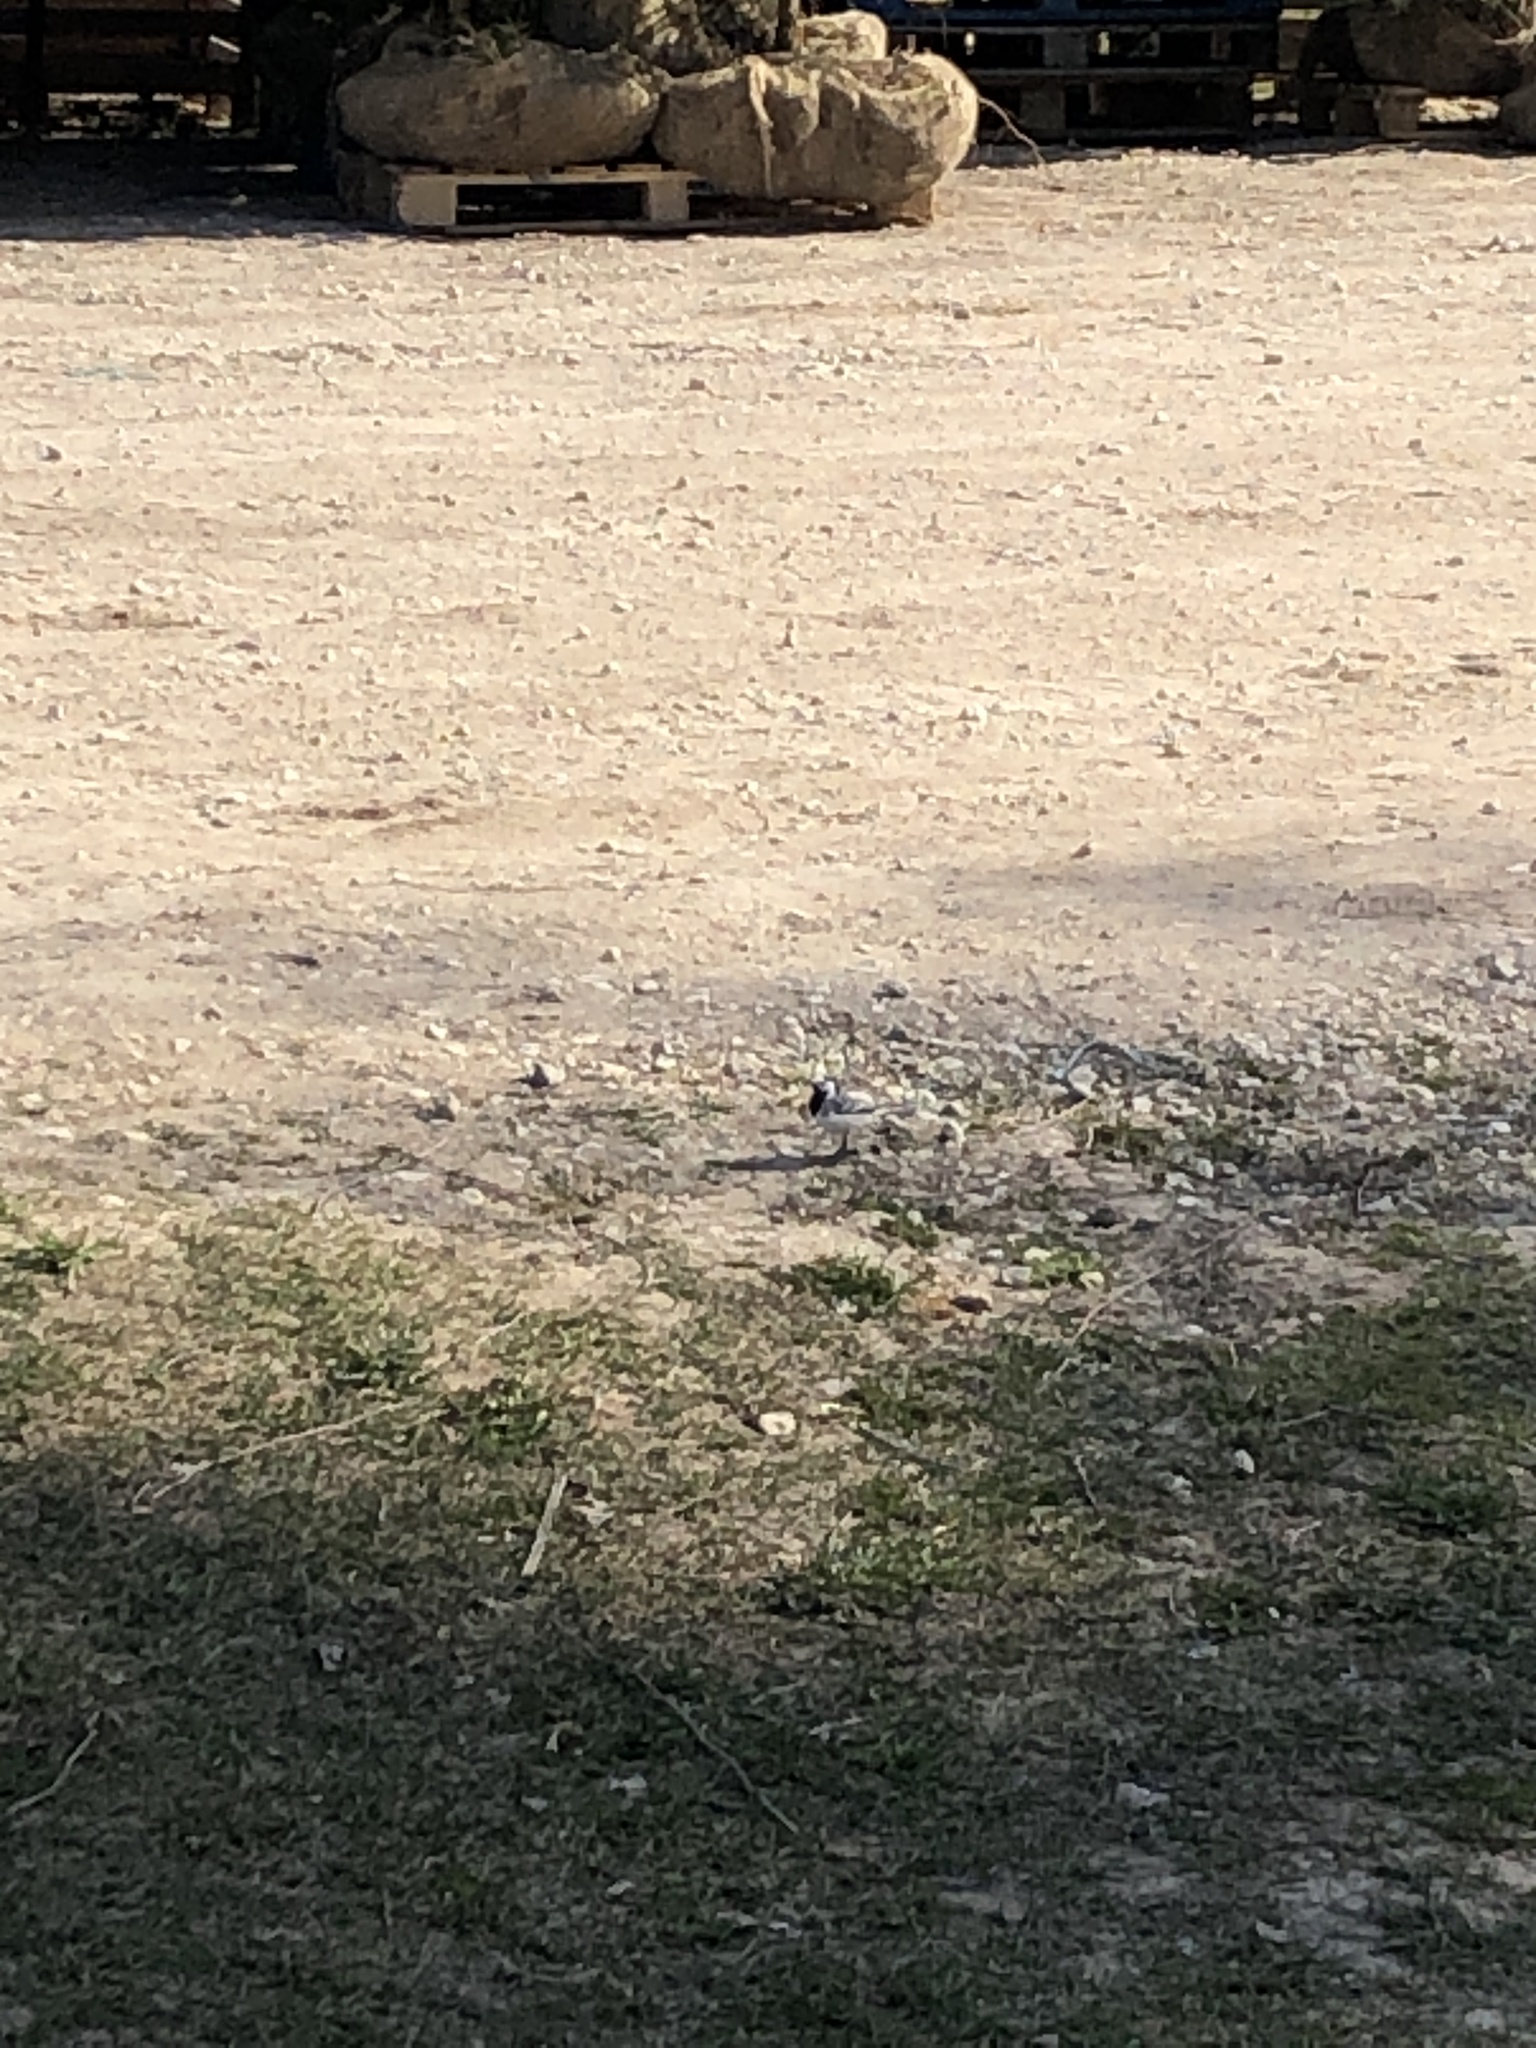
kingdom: Animalia
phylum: Chordata
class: Aves
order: Passeriformes
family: Motacillidae
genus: Motacilla
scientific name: Motacilla alba
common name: White wagtail
